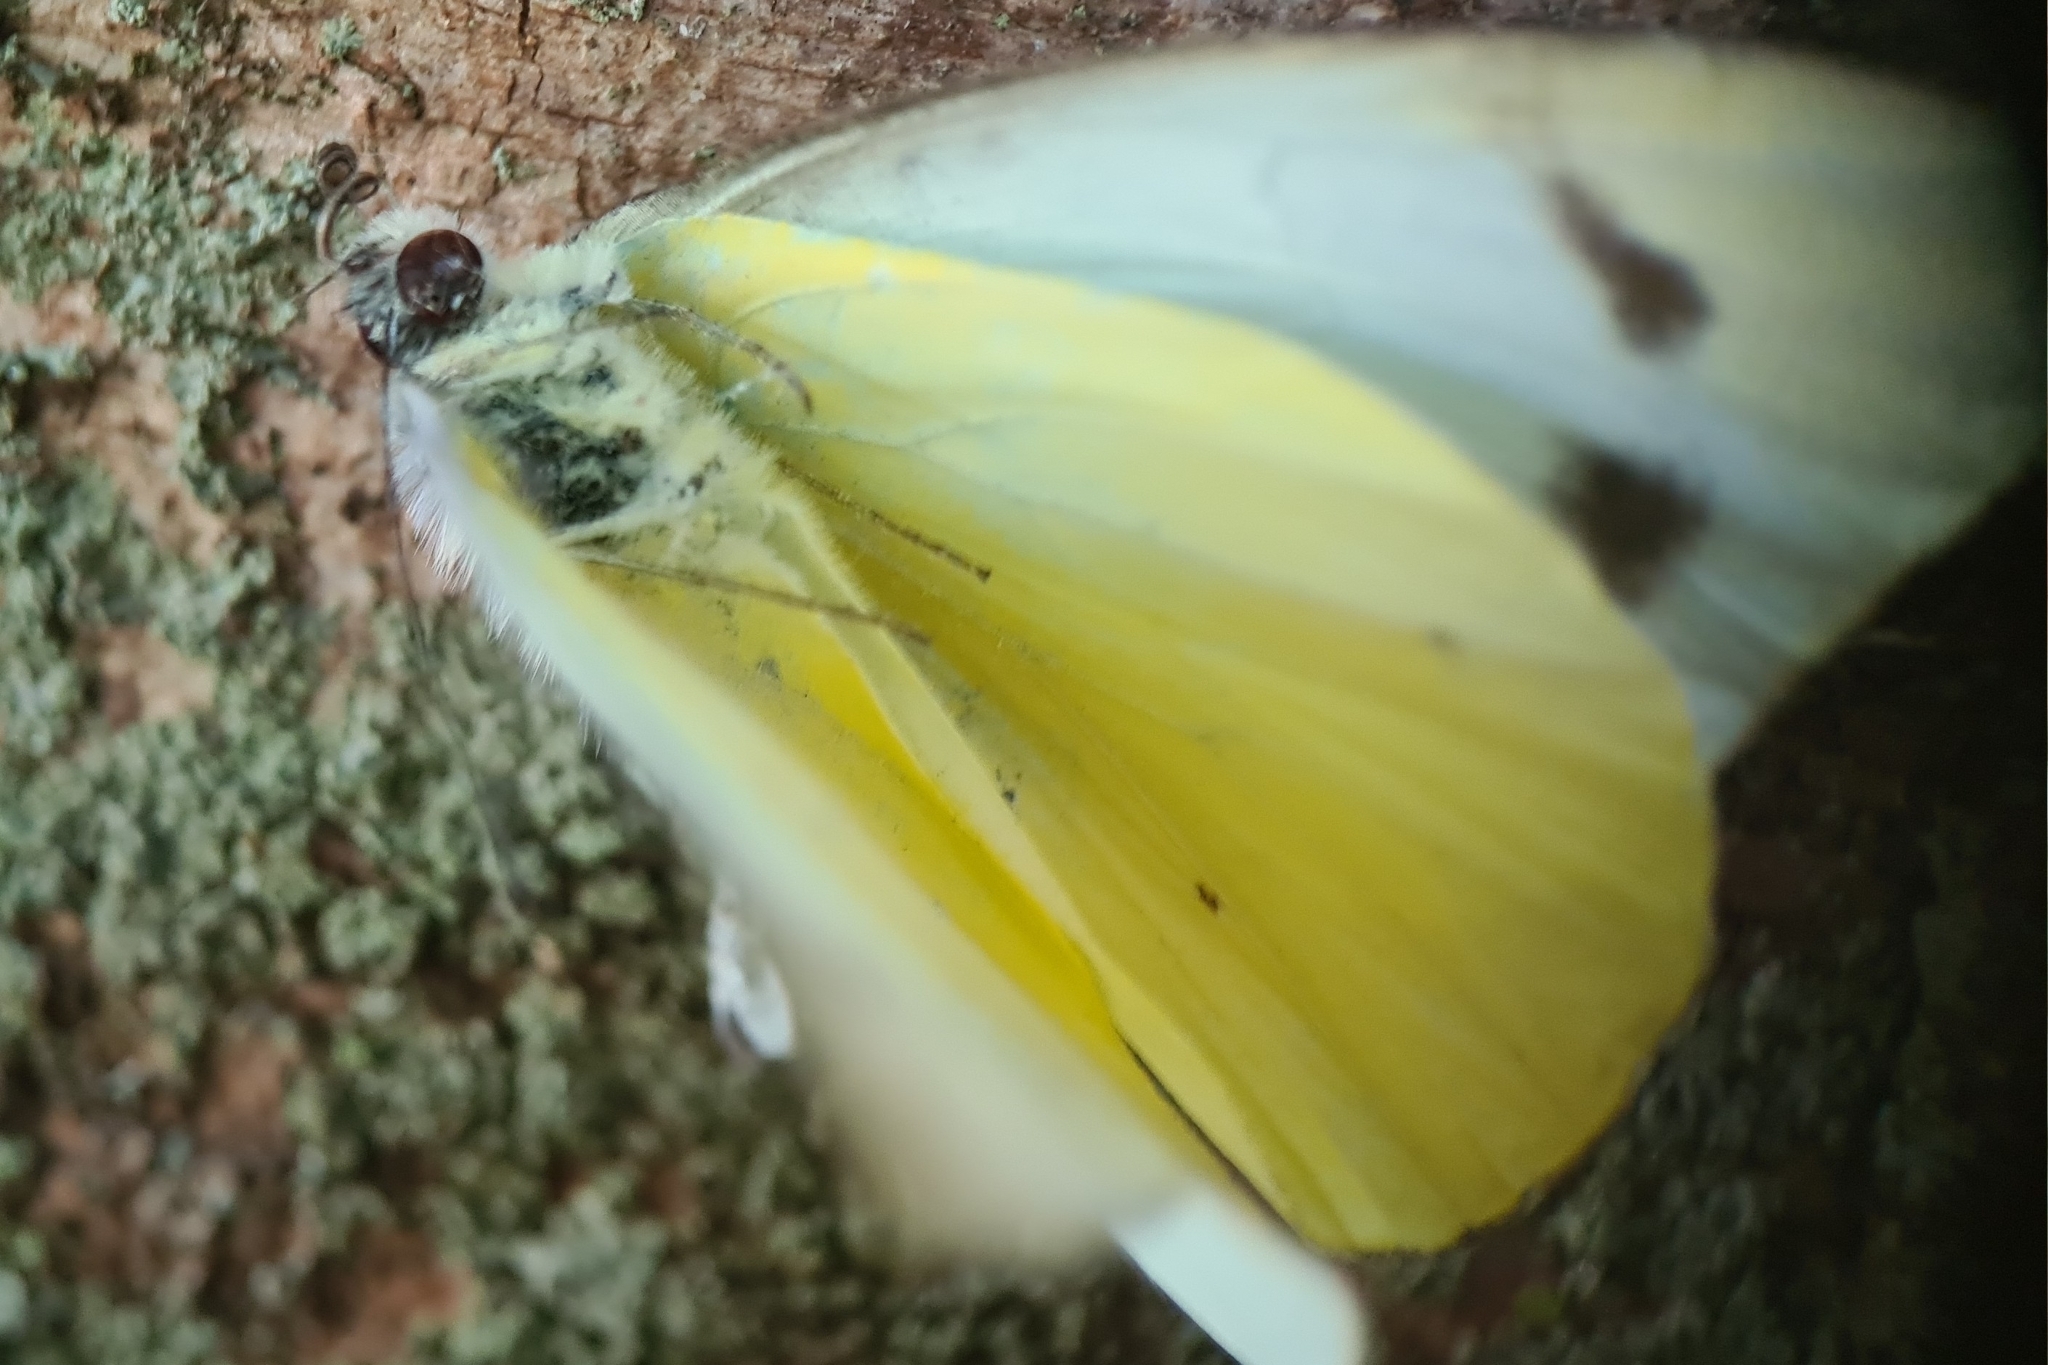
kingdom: Animalia
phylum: Arthropoda
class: Insecta
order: Lepidoptera
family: Pieridae
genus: Appias
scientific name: Appias paulina
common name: Ceylon lesser albatross
